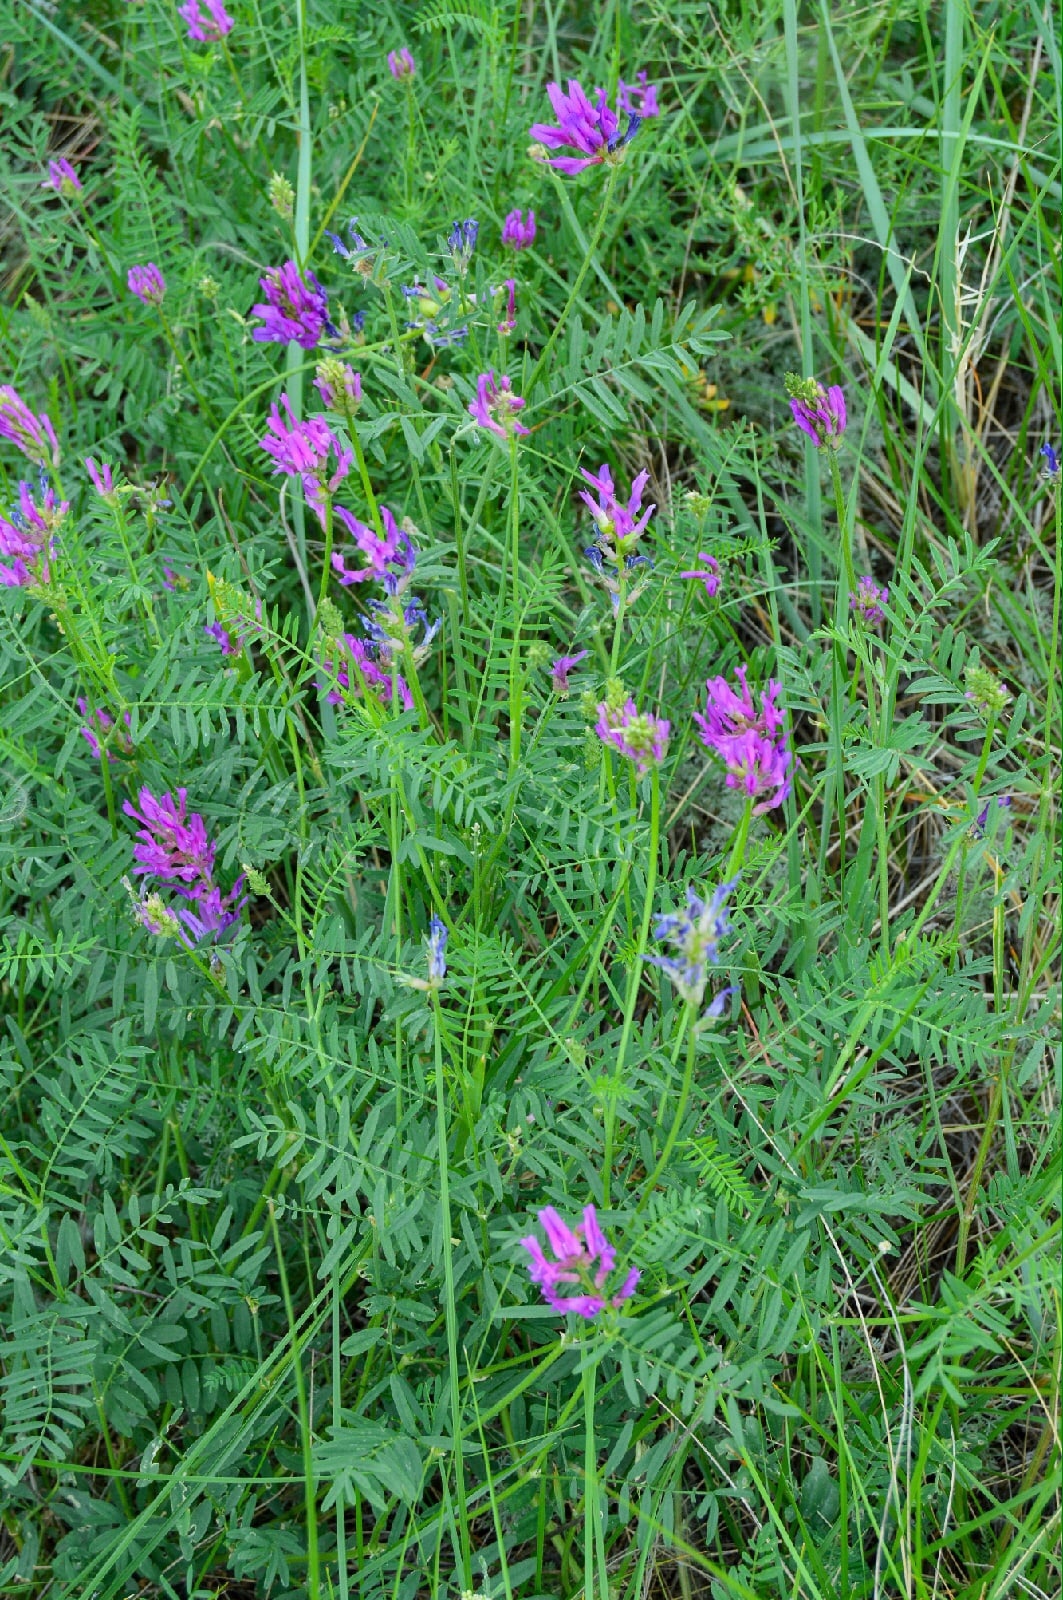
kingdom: Plantae
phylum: Tracheophyta
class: Magnoliopsida
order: Fabales
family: Fabaceae
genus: Astragalus
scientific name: Astragalus onobrychis
